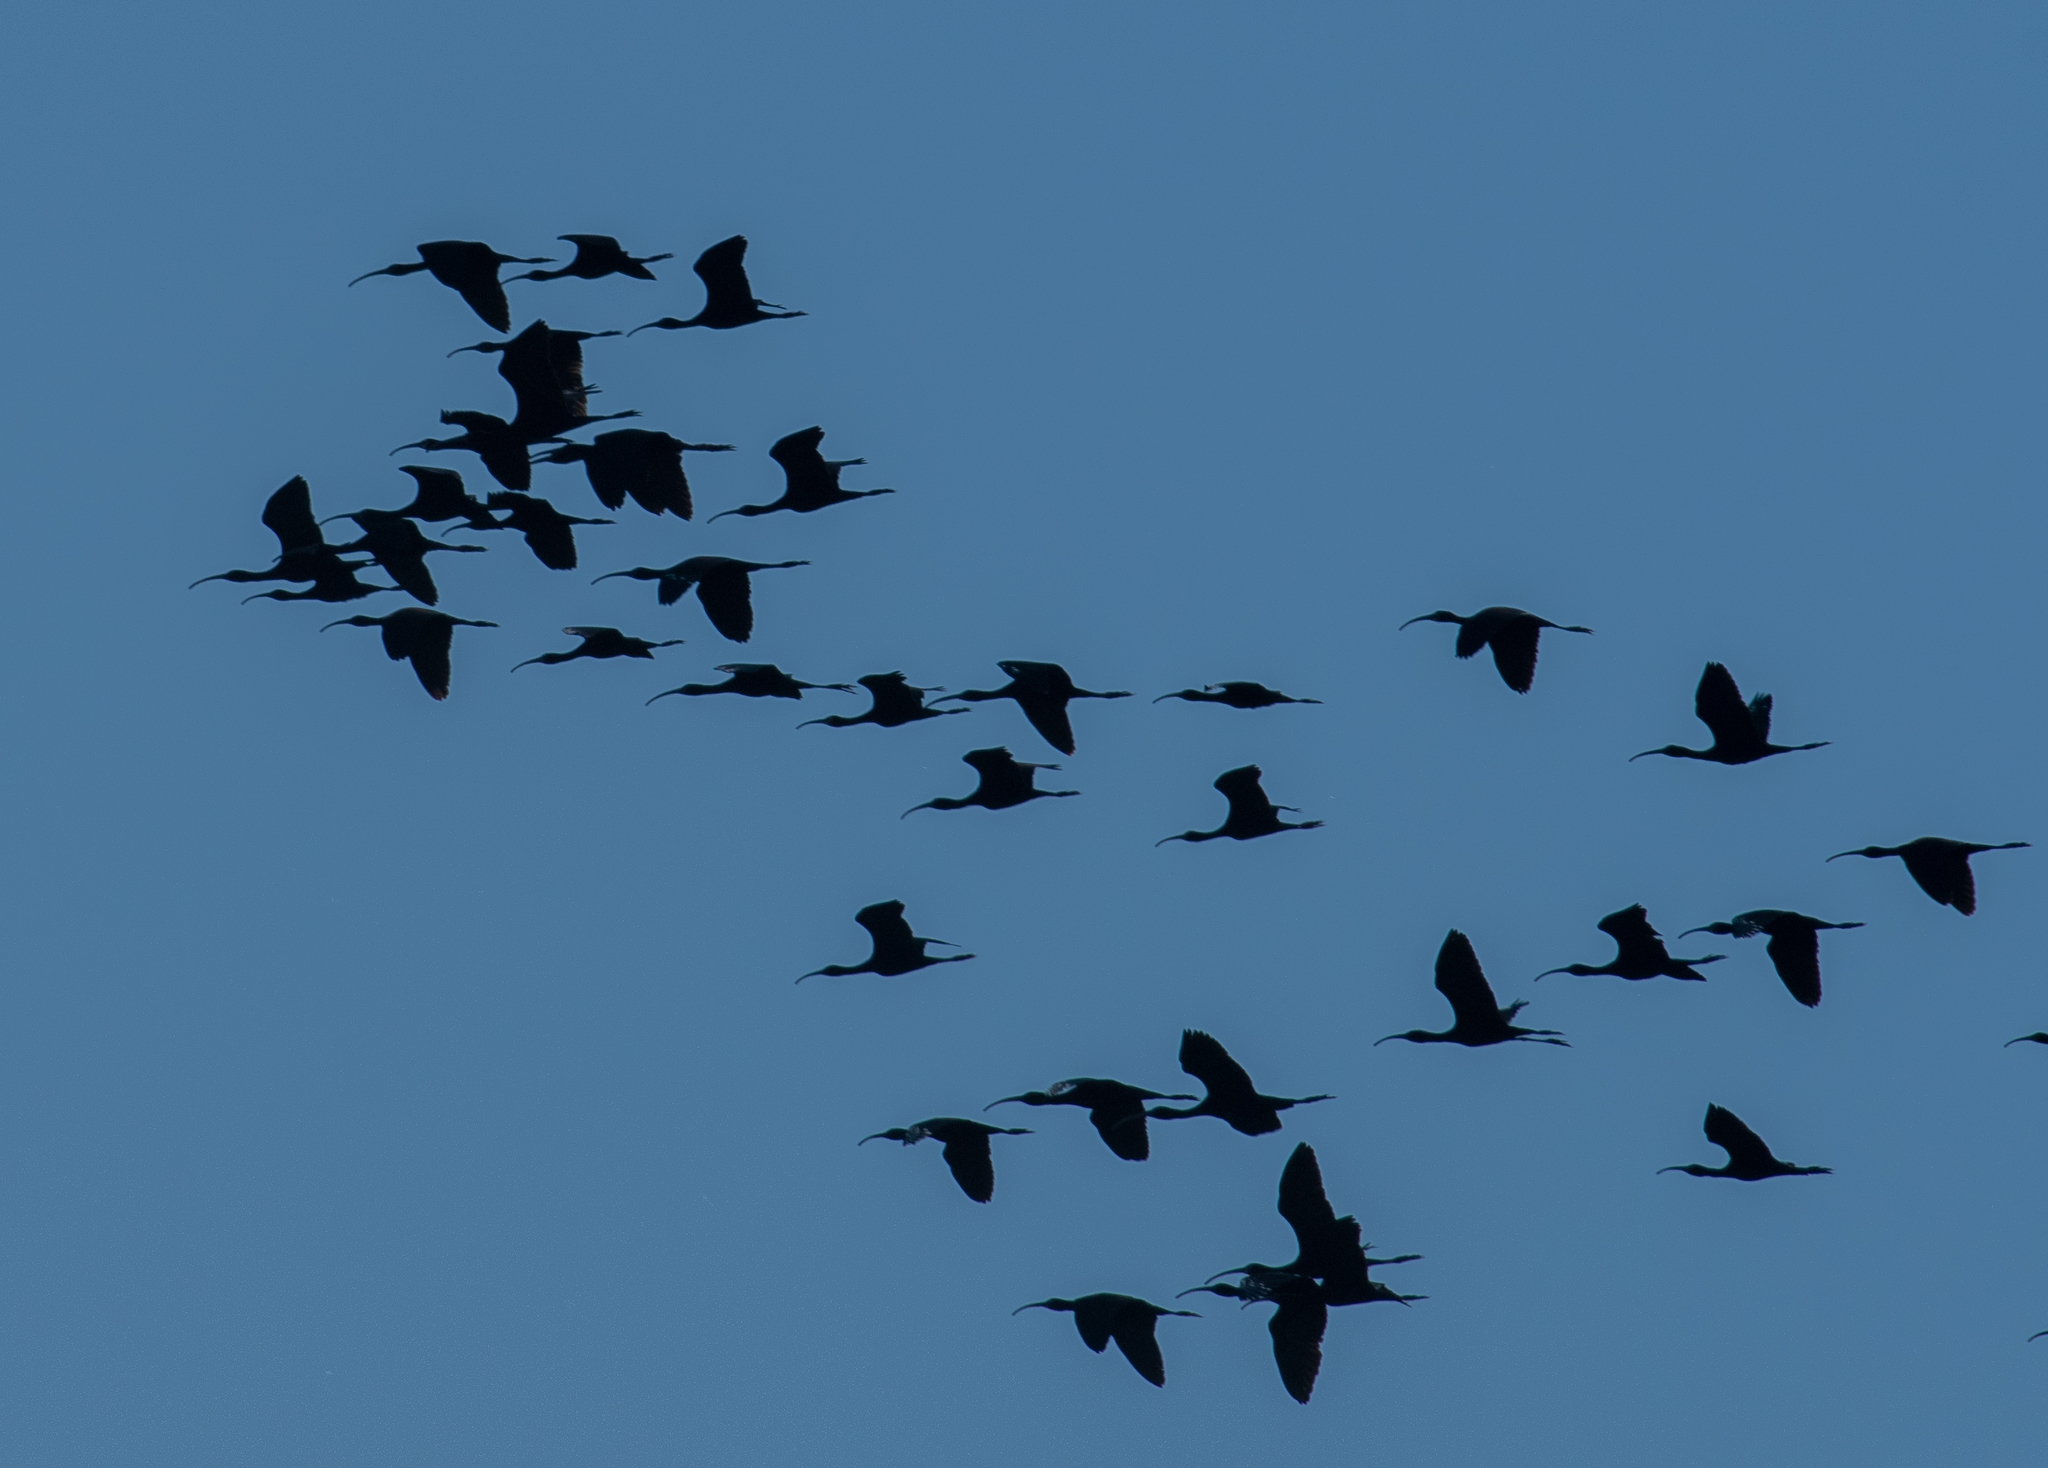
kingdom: Animalia
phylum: Chordata
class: Aves
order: Pelecaniformes
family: Threskiornithidae
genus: Plegadis
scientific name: Plegadis chihi
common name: White-faced ibis
